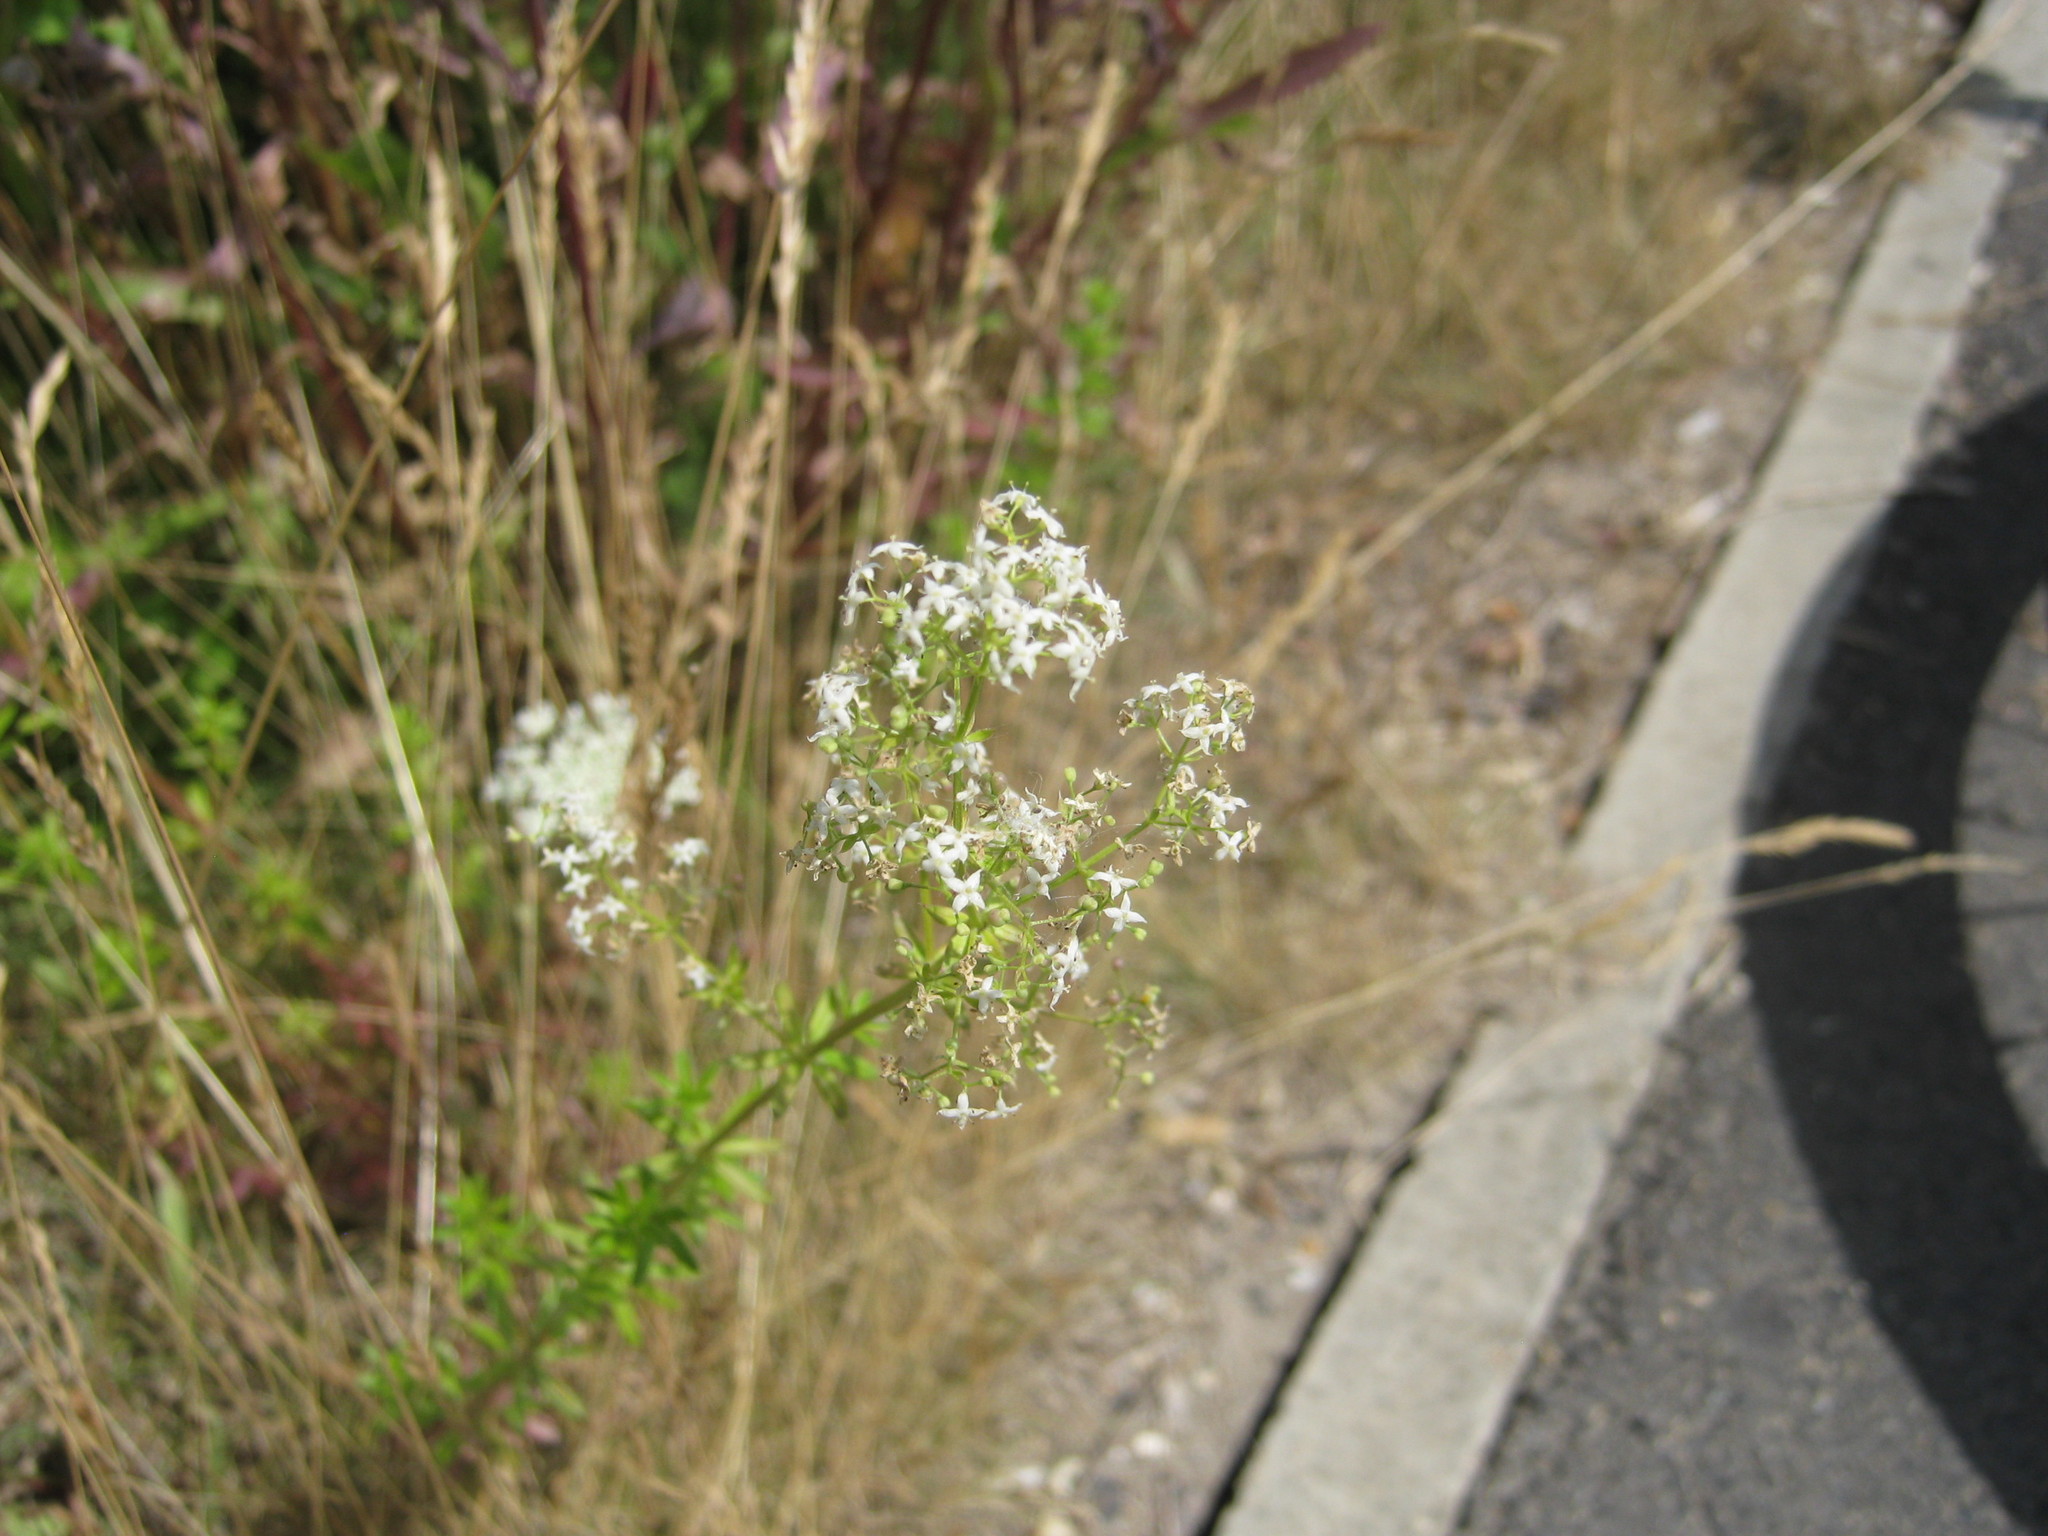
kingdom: Plantae
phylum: Tracheophyta
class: Magnoliopsida
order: Gentianales
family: Rubiaceae
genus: Galium
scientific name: Galium mollugo
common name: Hedge bedstraw
